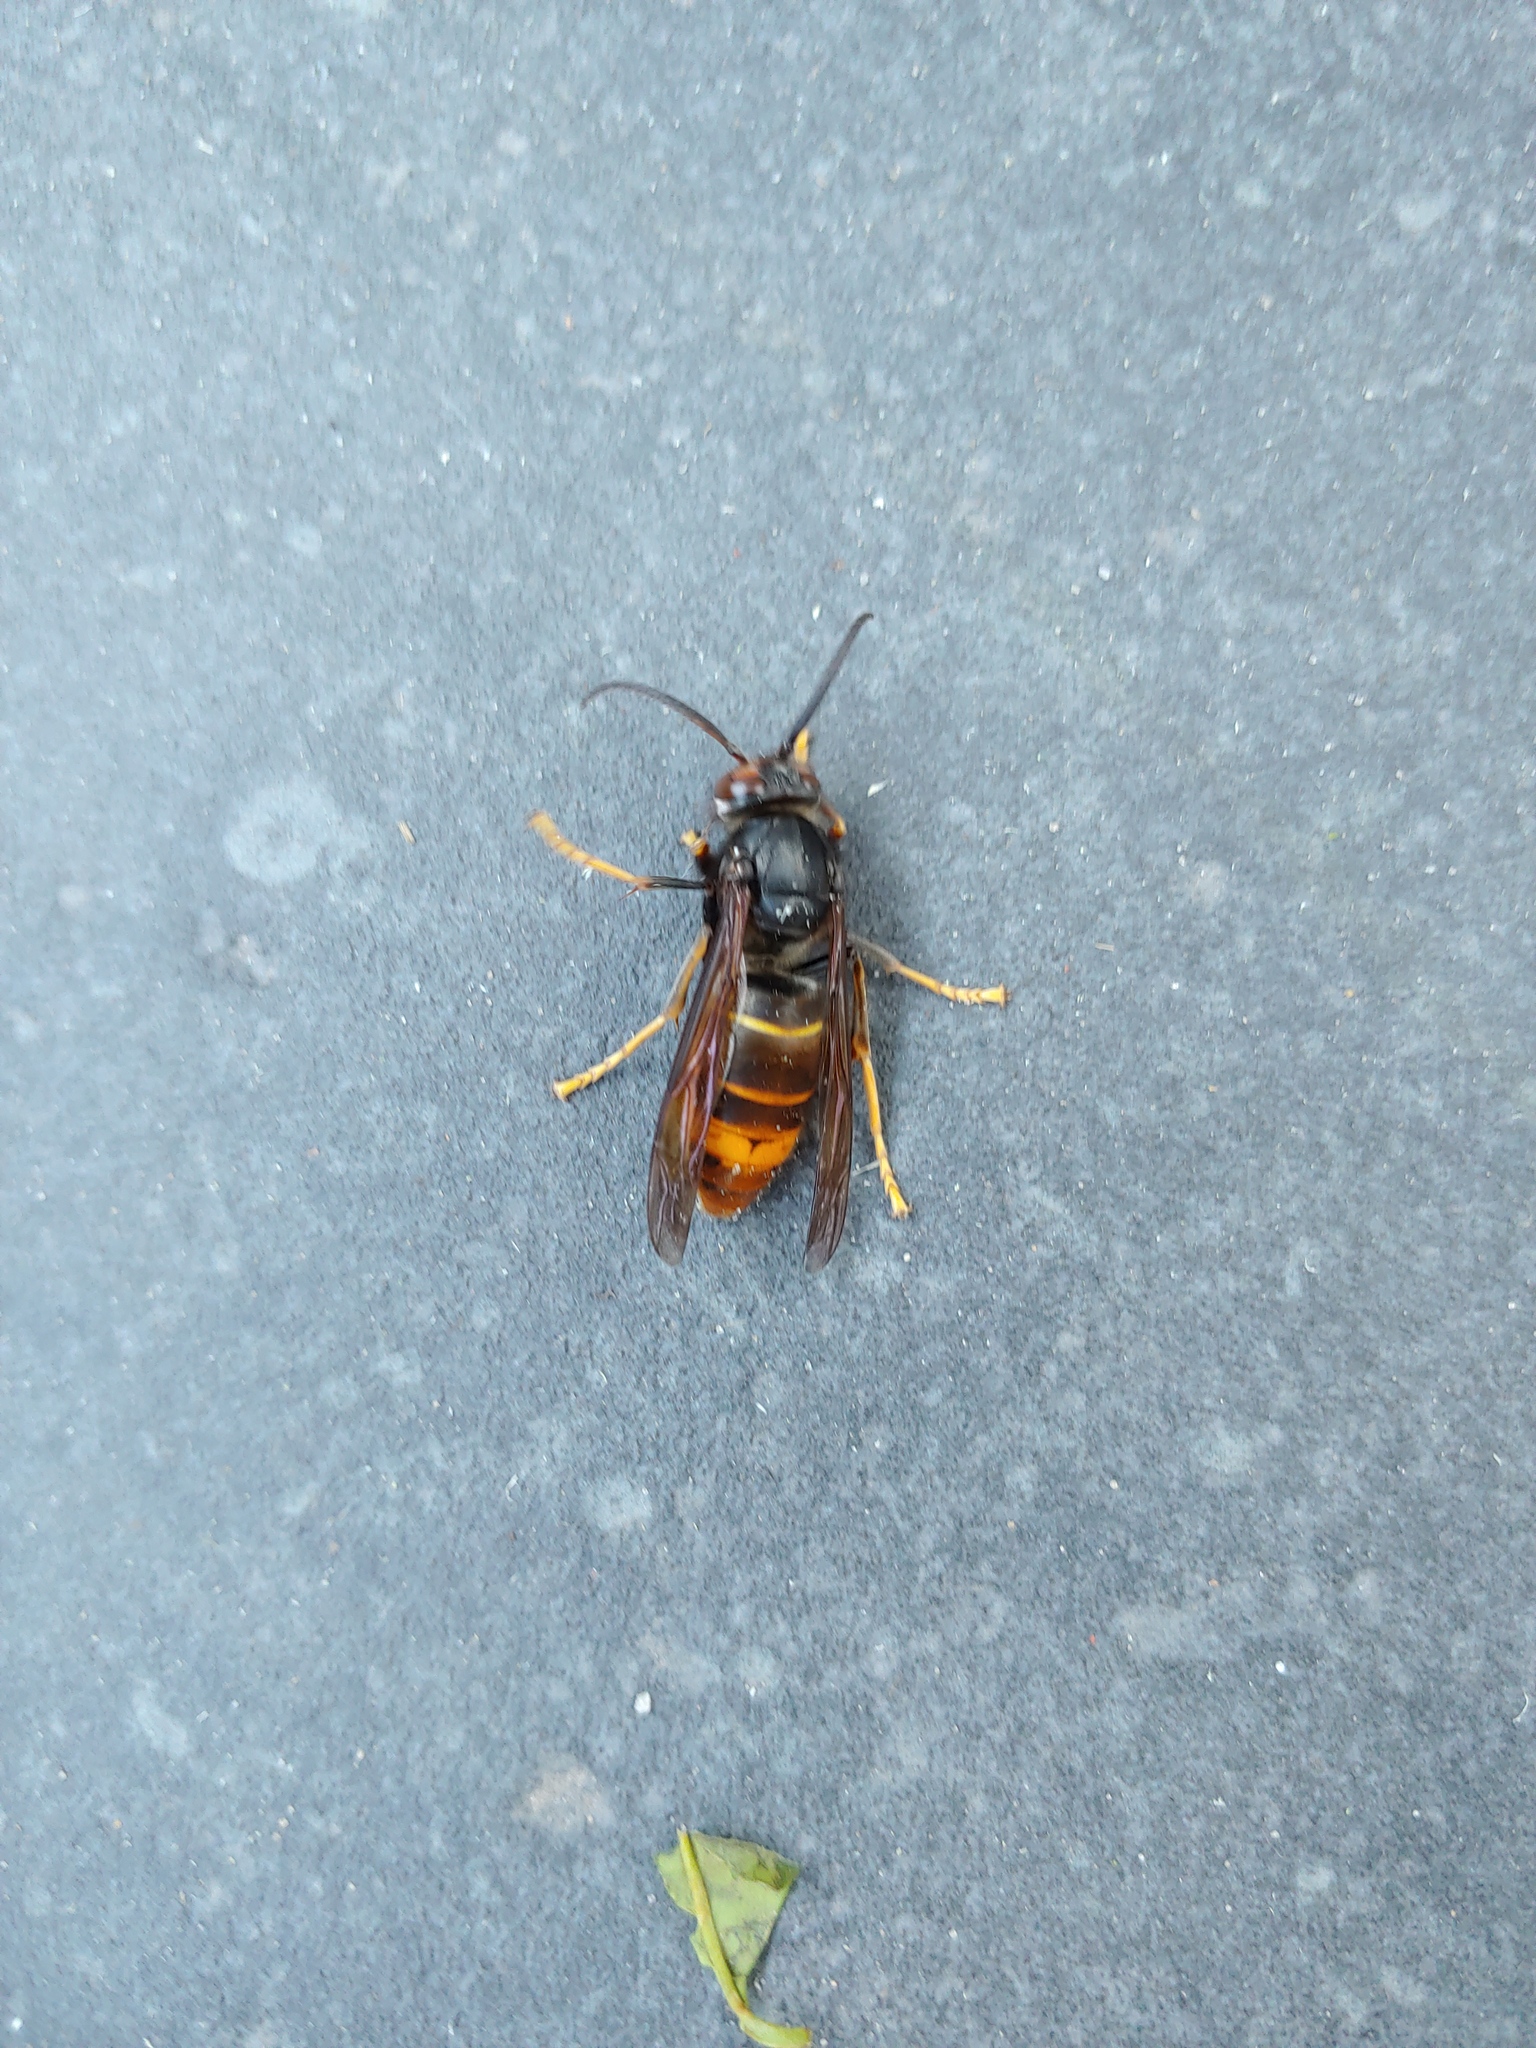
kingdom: Animalia
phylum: Arthropoda
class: Insecta
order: Hymenoptera
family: Vespidae
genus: Vespa
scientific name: Vespa velutina
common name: Asian hornet
